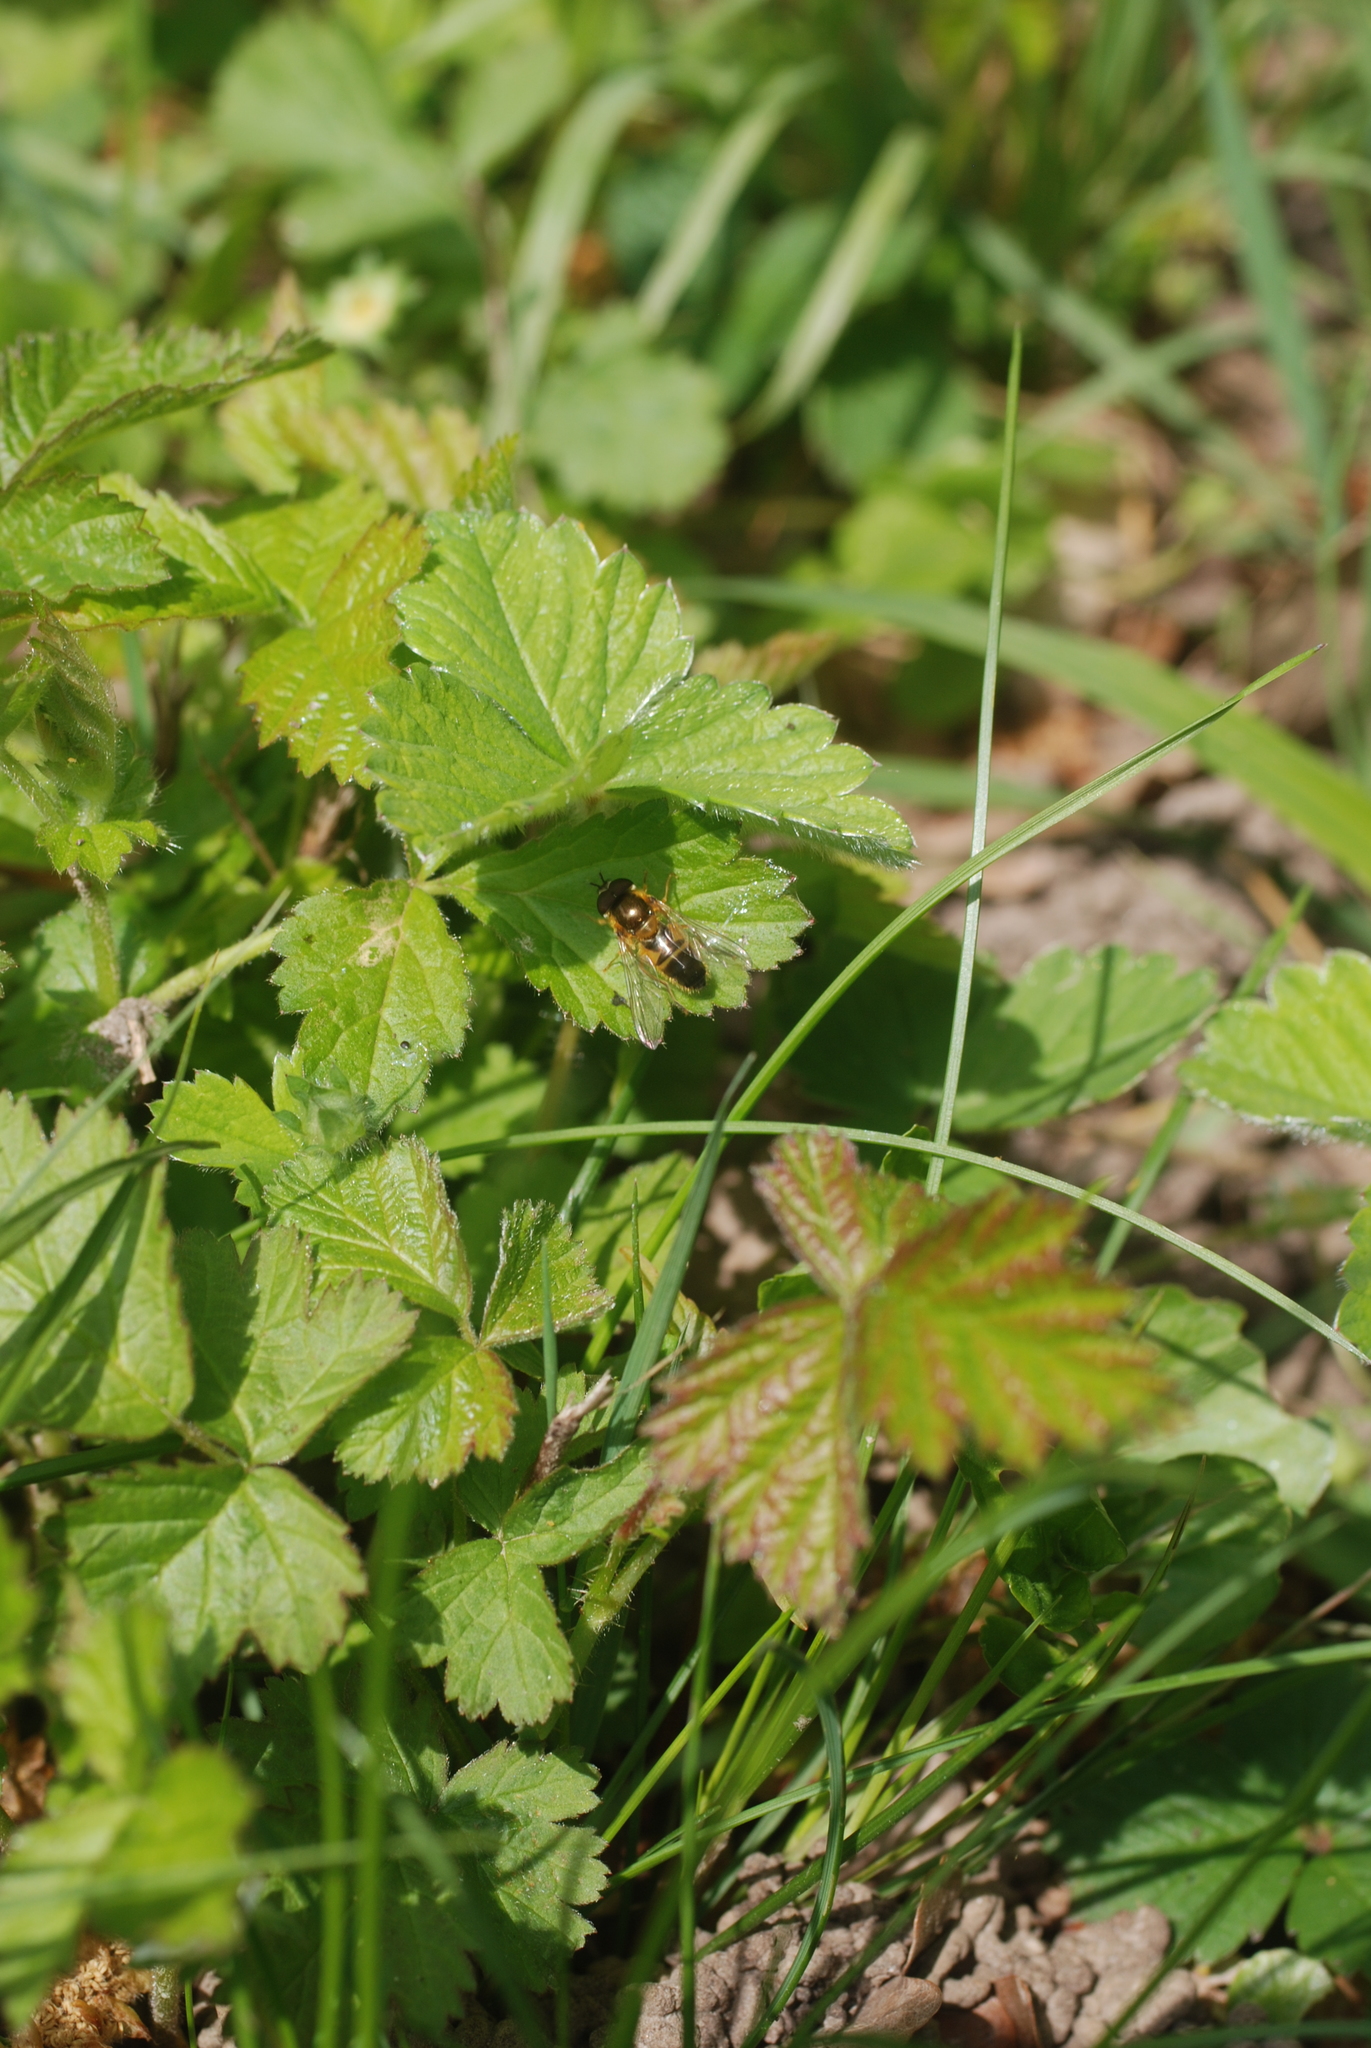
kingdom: Animalia
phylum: Arthropoda
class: Insecta
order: Diptera
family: Syrphidae
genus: Epistrophe
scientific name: Epistrophe eligans
